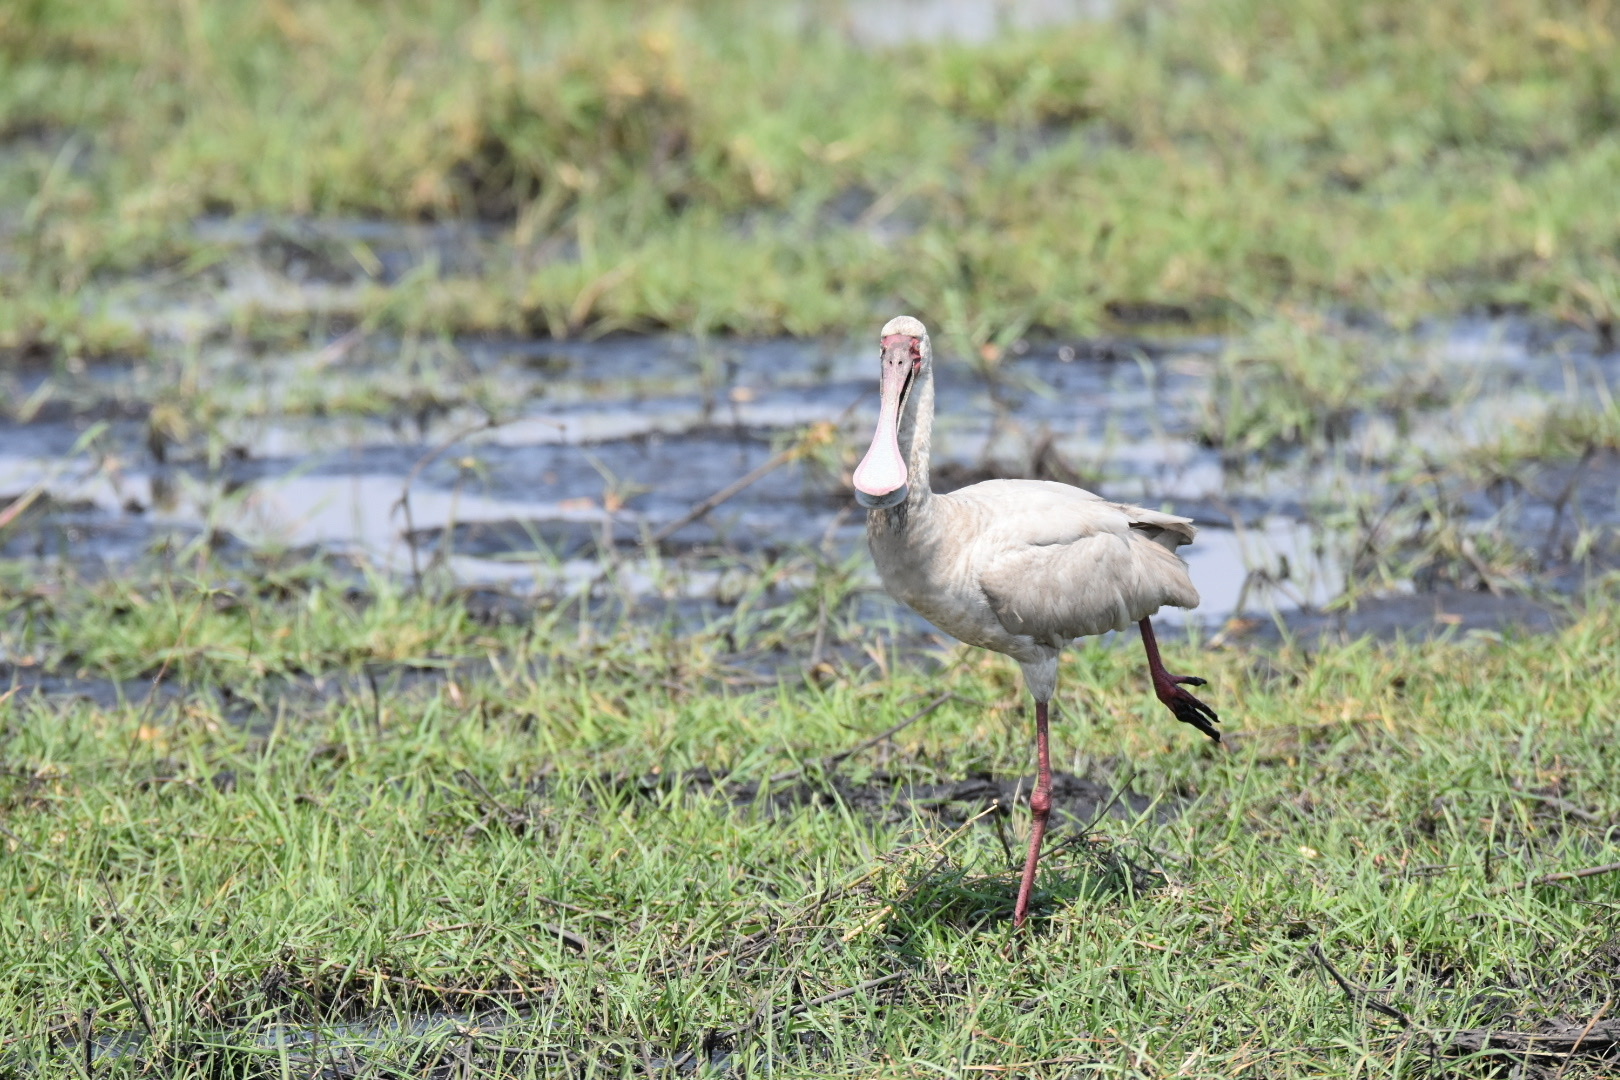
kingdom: Animalia
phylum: Chordata
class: Aves
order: Pelecaniformes
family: Threskiornithidae
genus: Platalea
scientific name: Platalea alba
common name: African spoonbill
